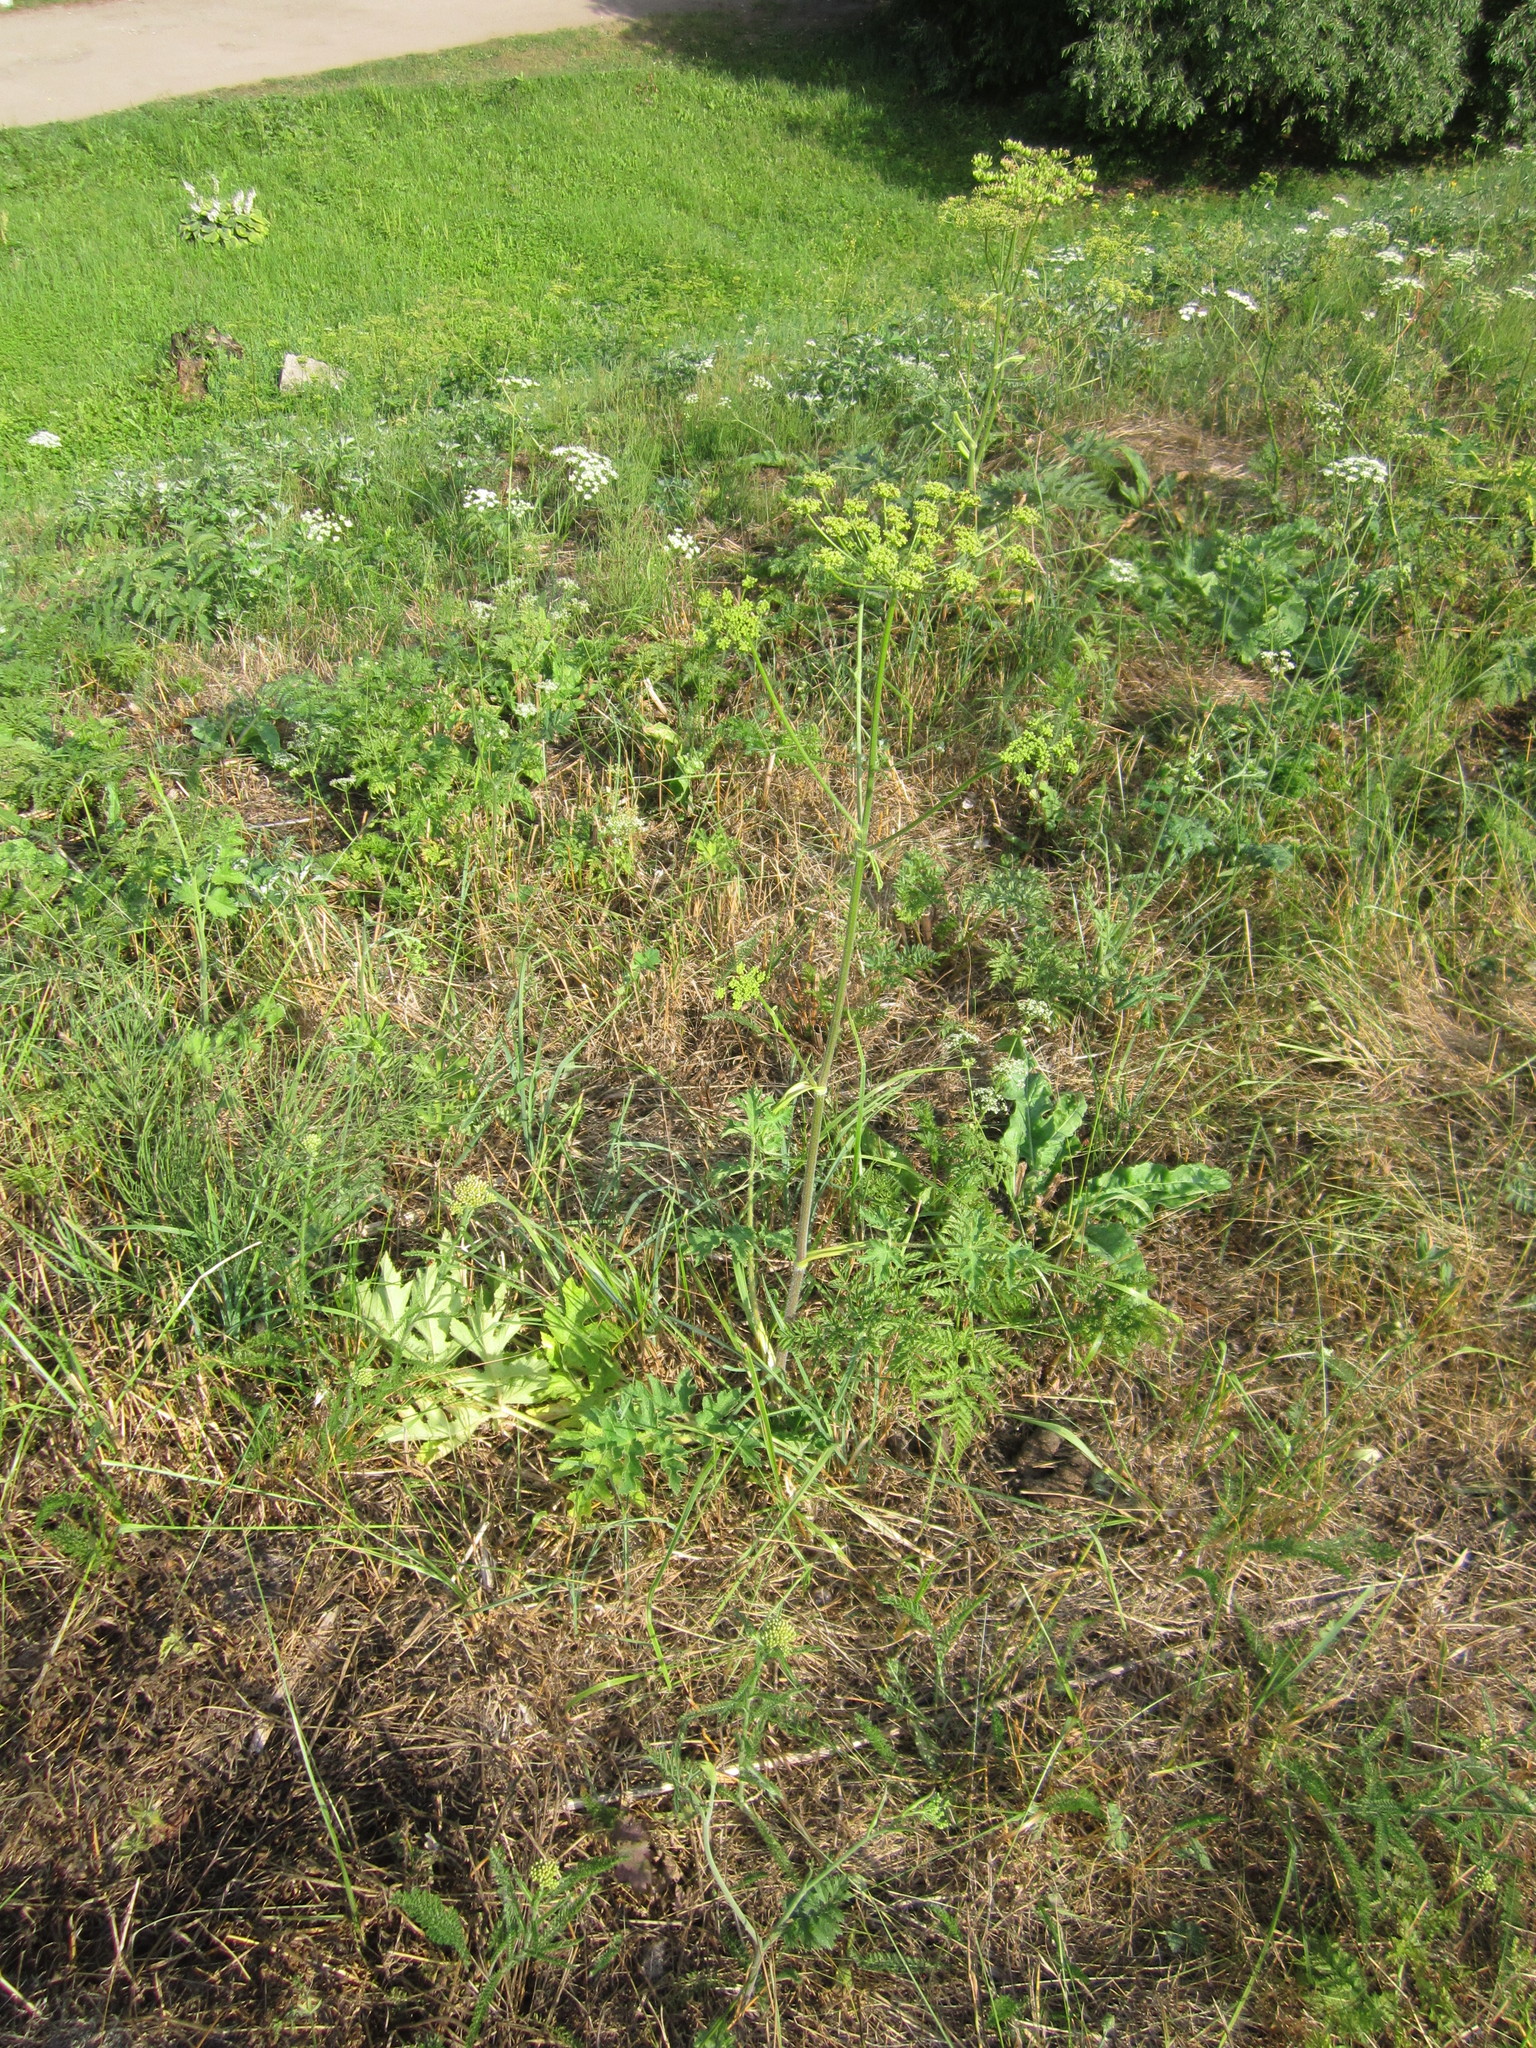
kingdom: Plantae
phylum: Tracheophyta
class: Magnoliopsida
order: Apiales
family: Apiaceae
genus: Heracleum
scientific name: Heracleum sphondylium
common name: Hogweed
